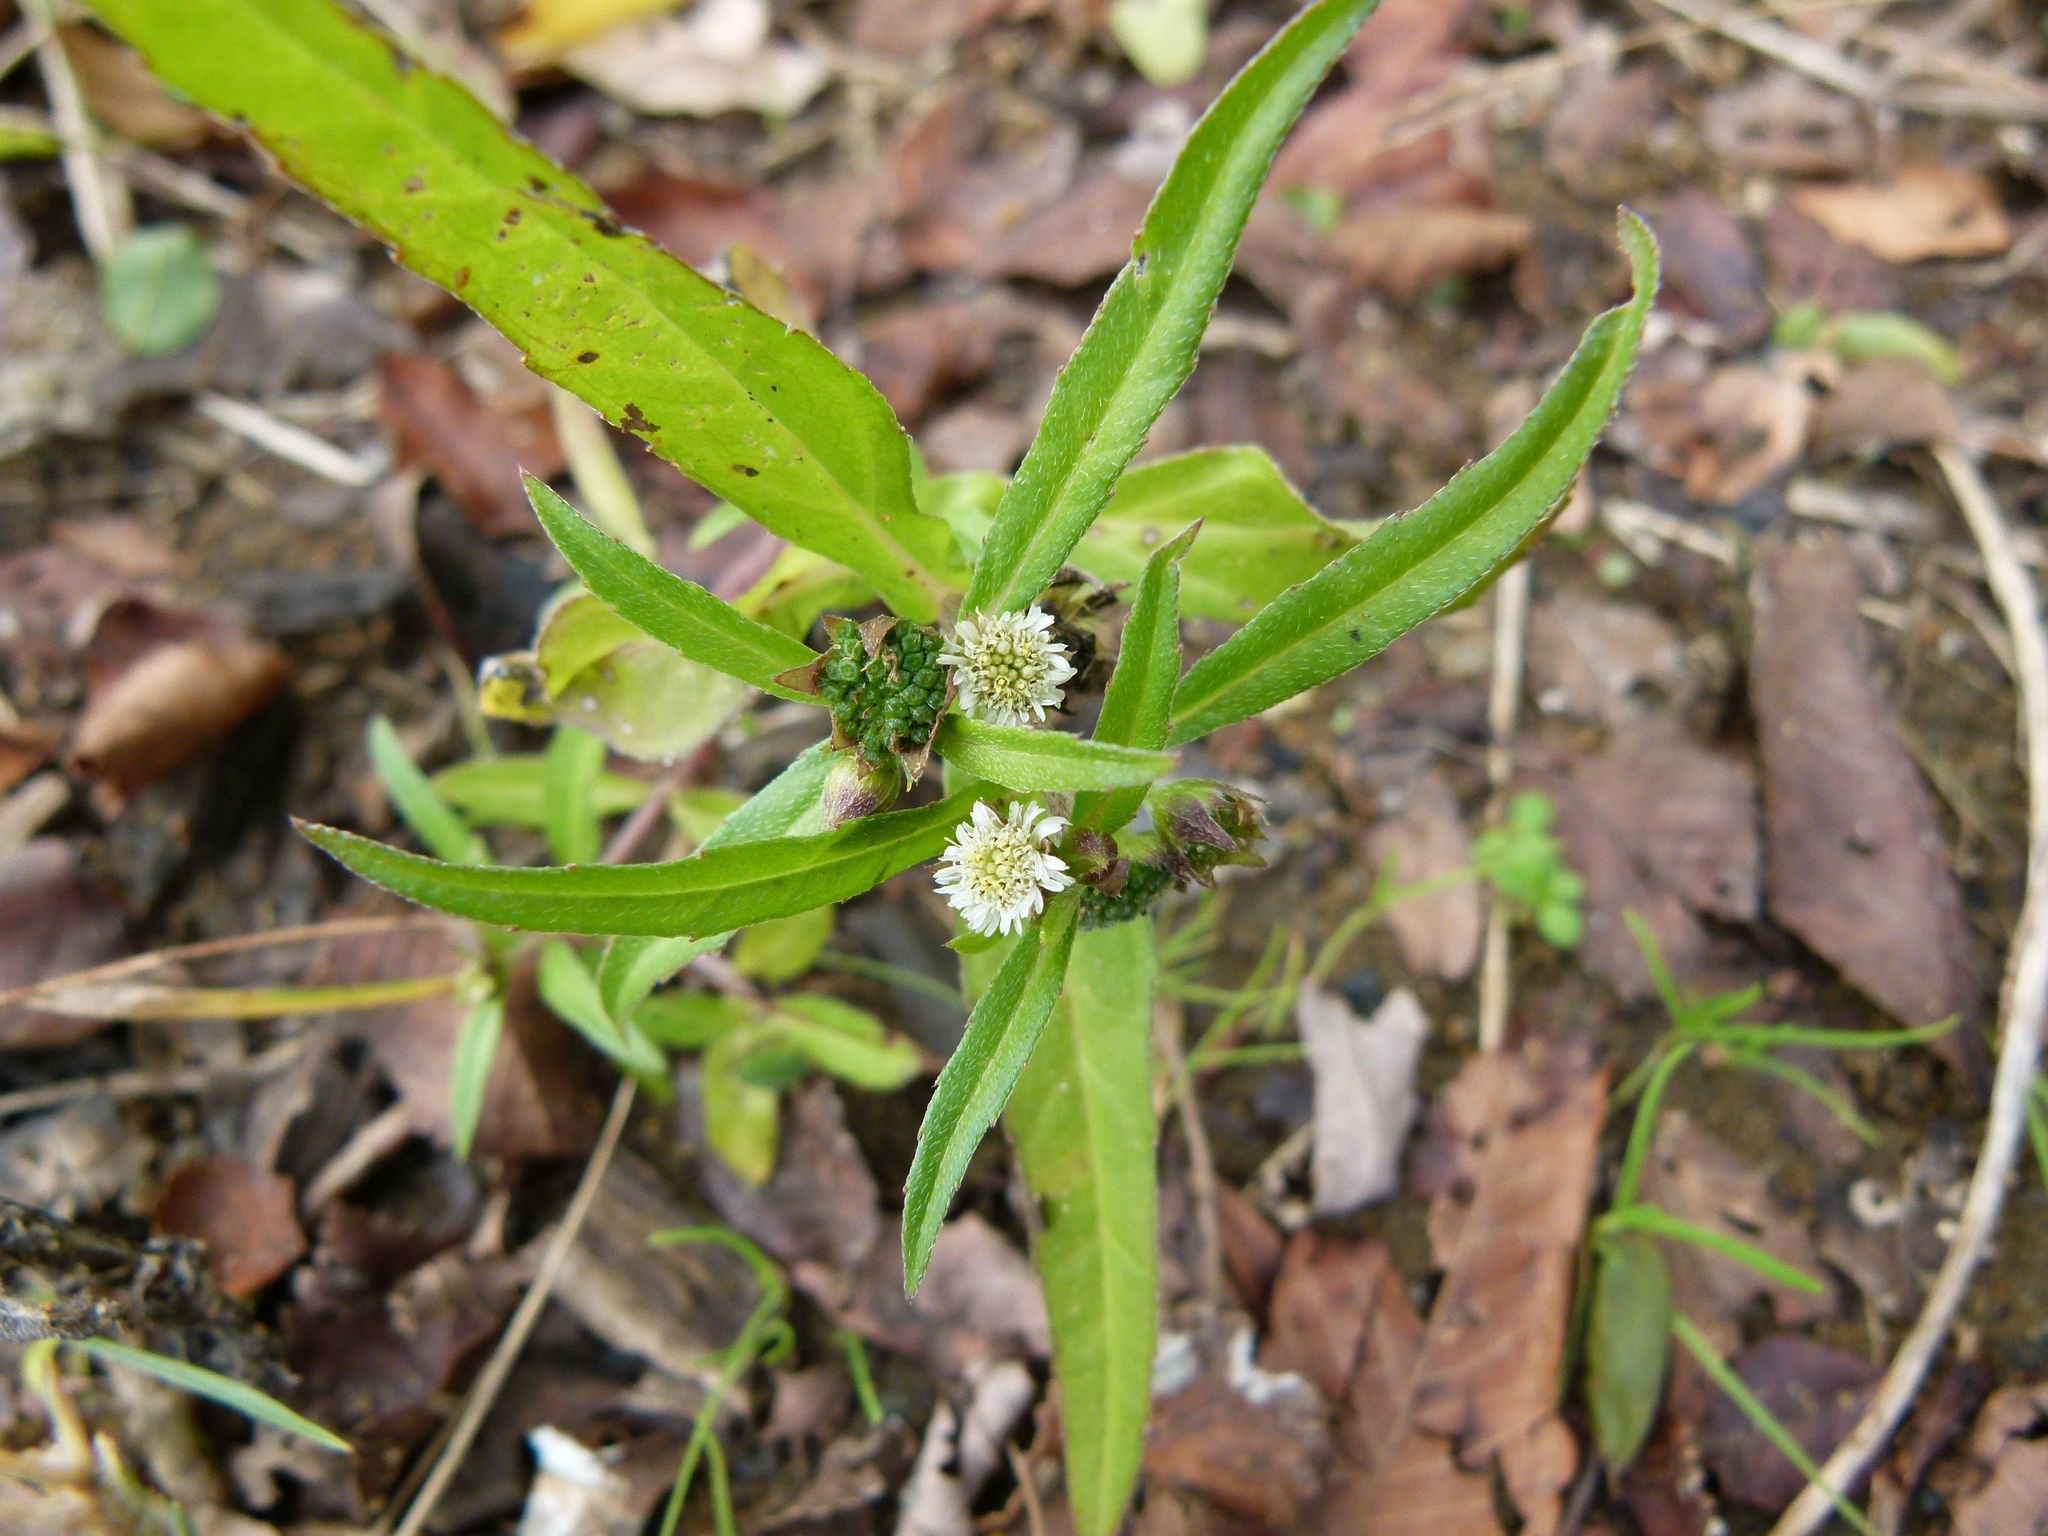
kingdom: Plantae
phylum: Tracheophyta
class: Magnoliopsida
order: Asterales
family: Asteraceae
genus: Eclipta
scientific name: Eclipta prostrata
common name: False daisy
